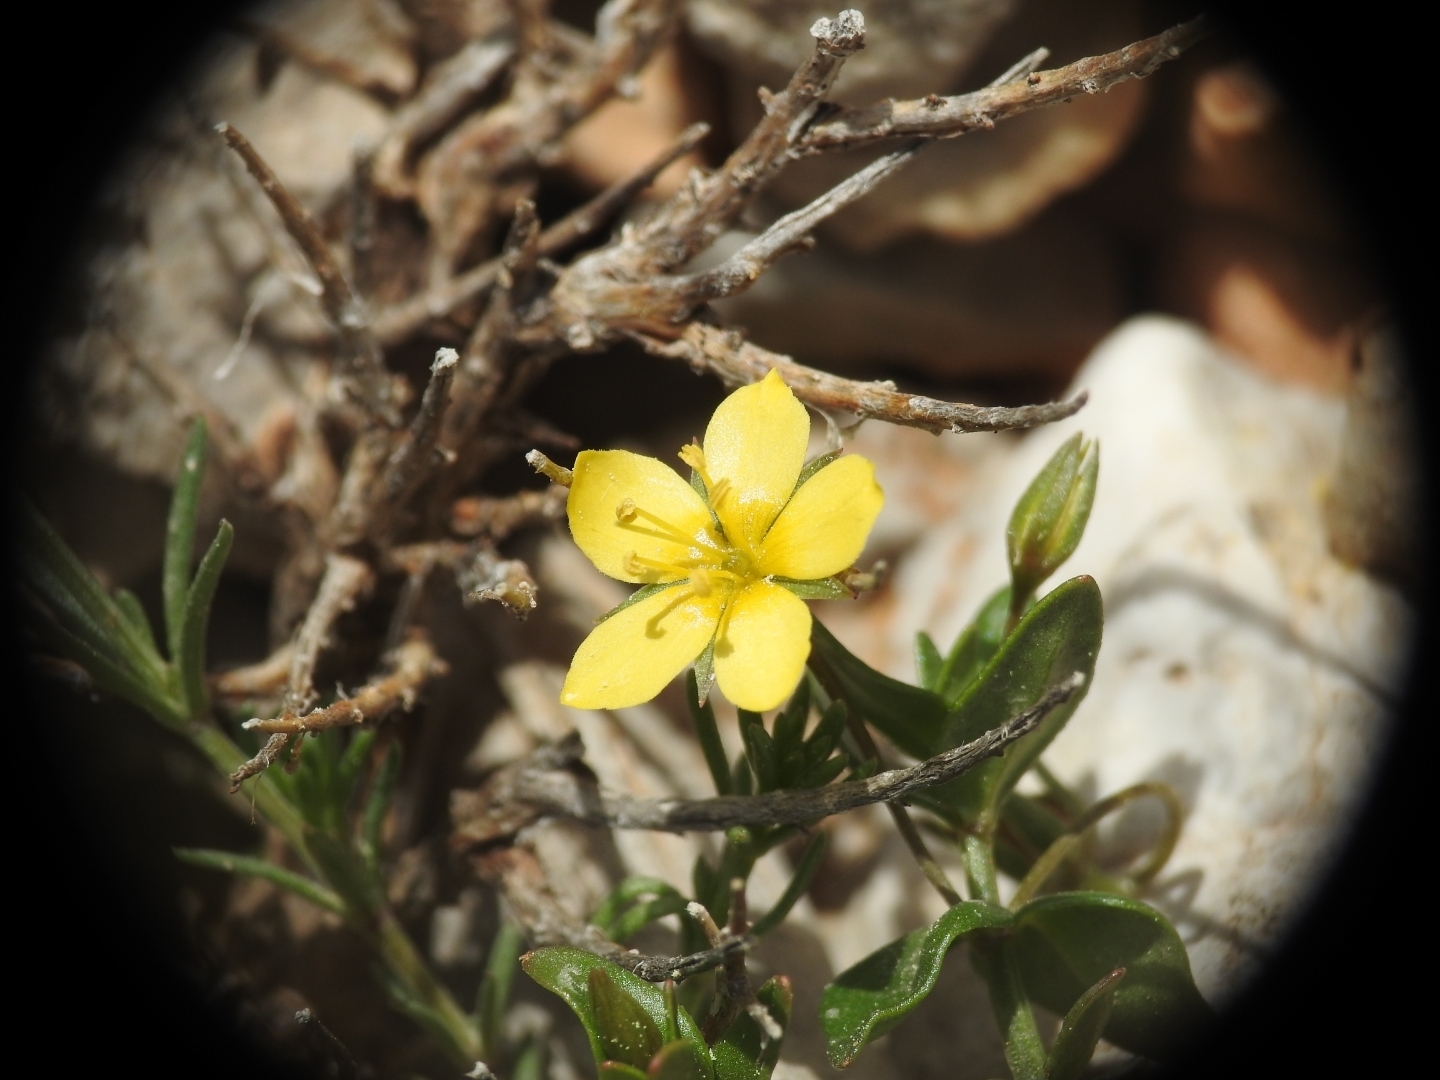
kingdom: Plantae
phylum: Tracheophyta
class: Magnoliopsida
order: Ericales
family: Primulaceae
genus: Lysimachia
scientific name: Lysimachia serpyllifolia
